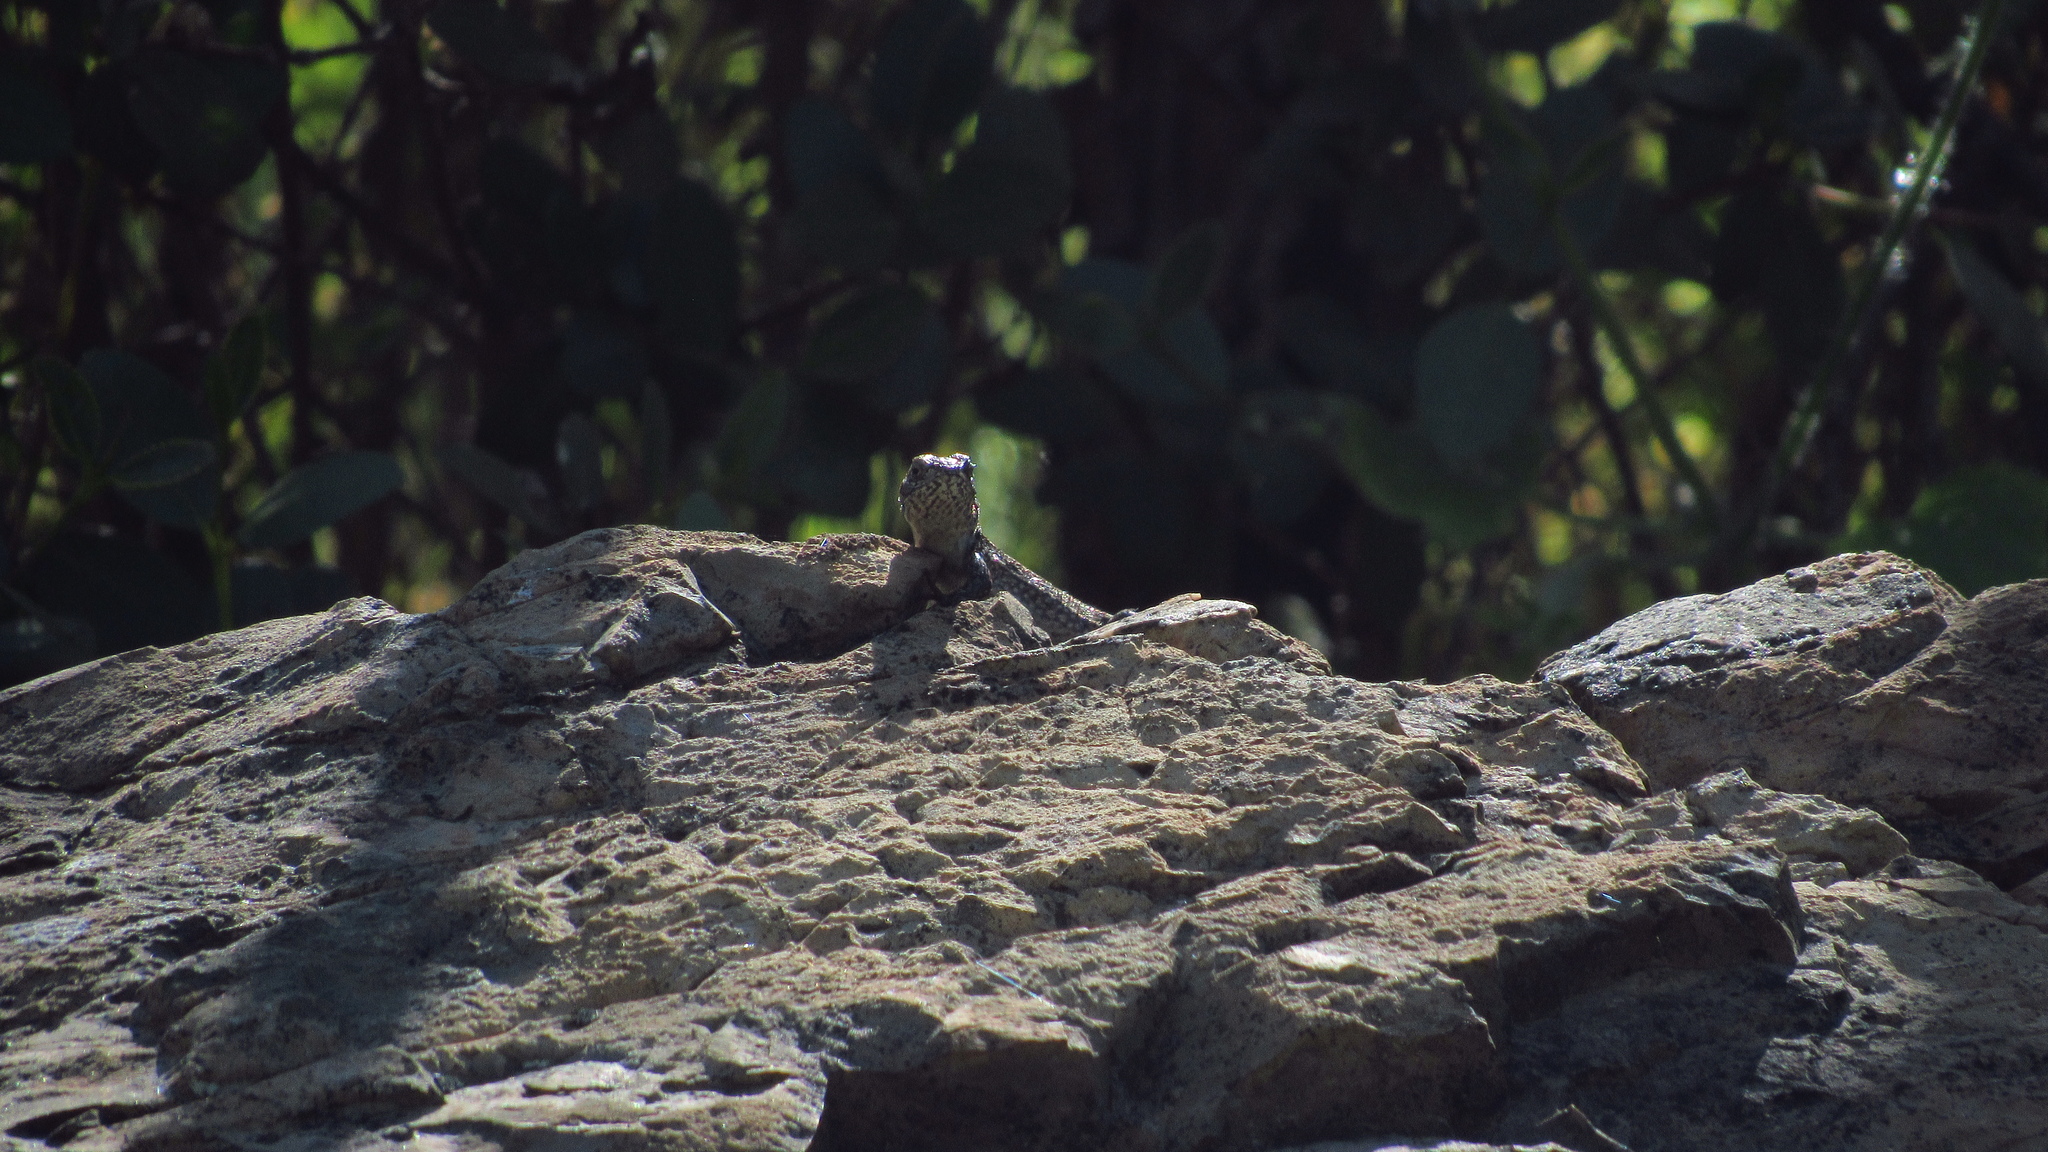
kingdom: Animalia
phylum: Chordata
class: Squamata
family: Liolaemidae
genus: Liolaemus
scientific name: Liolaemus monticola
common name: Peak tree iguana
